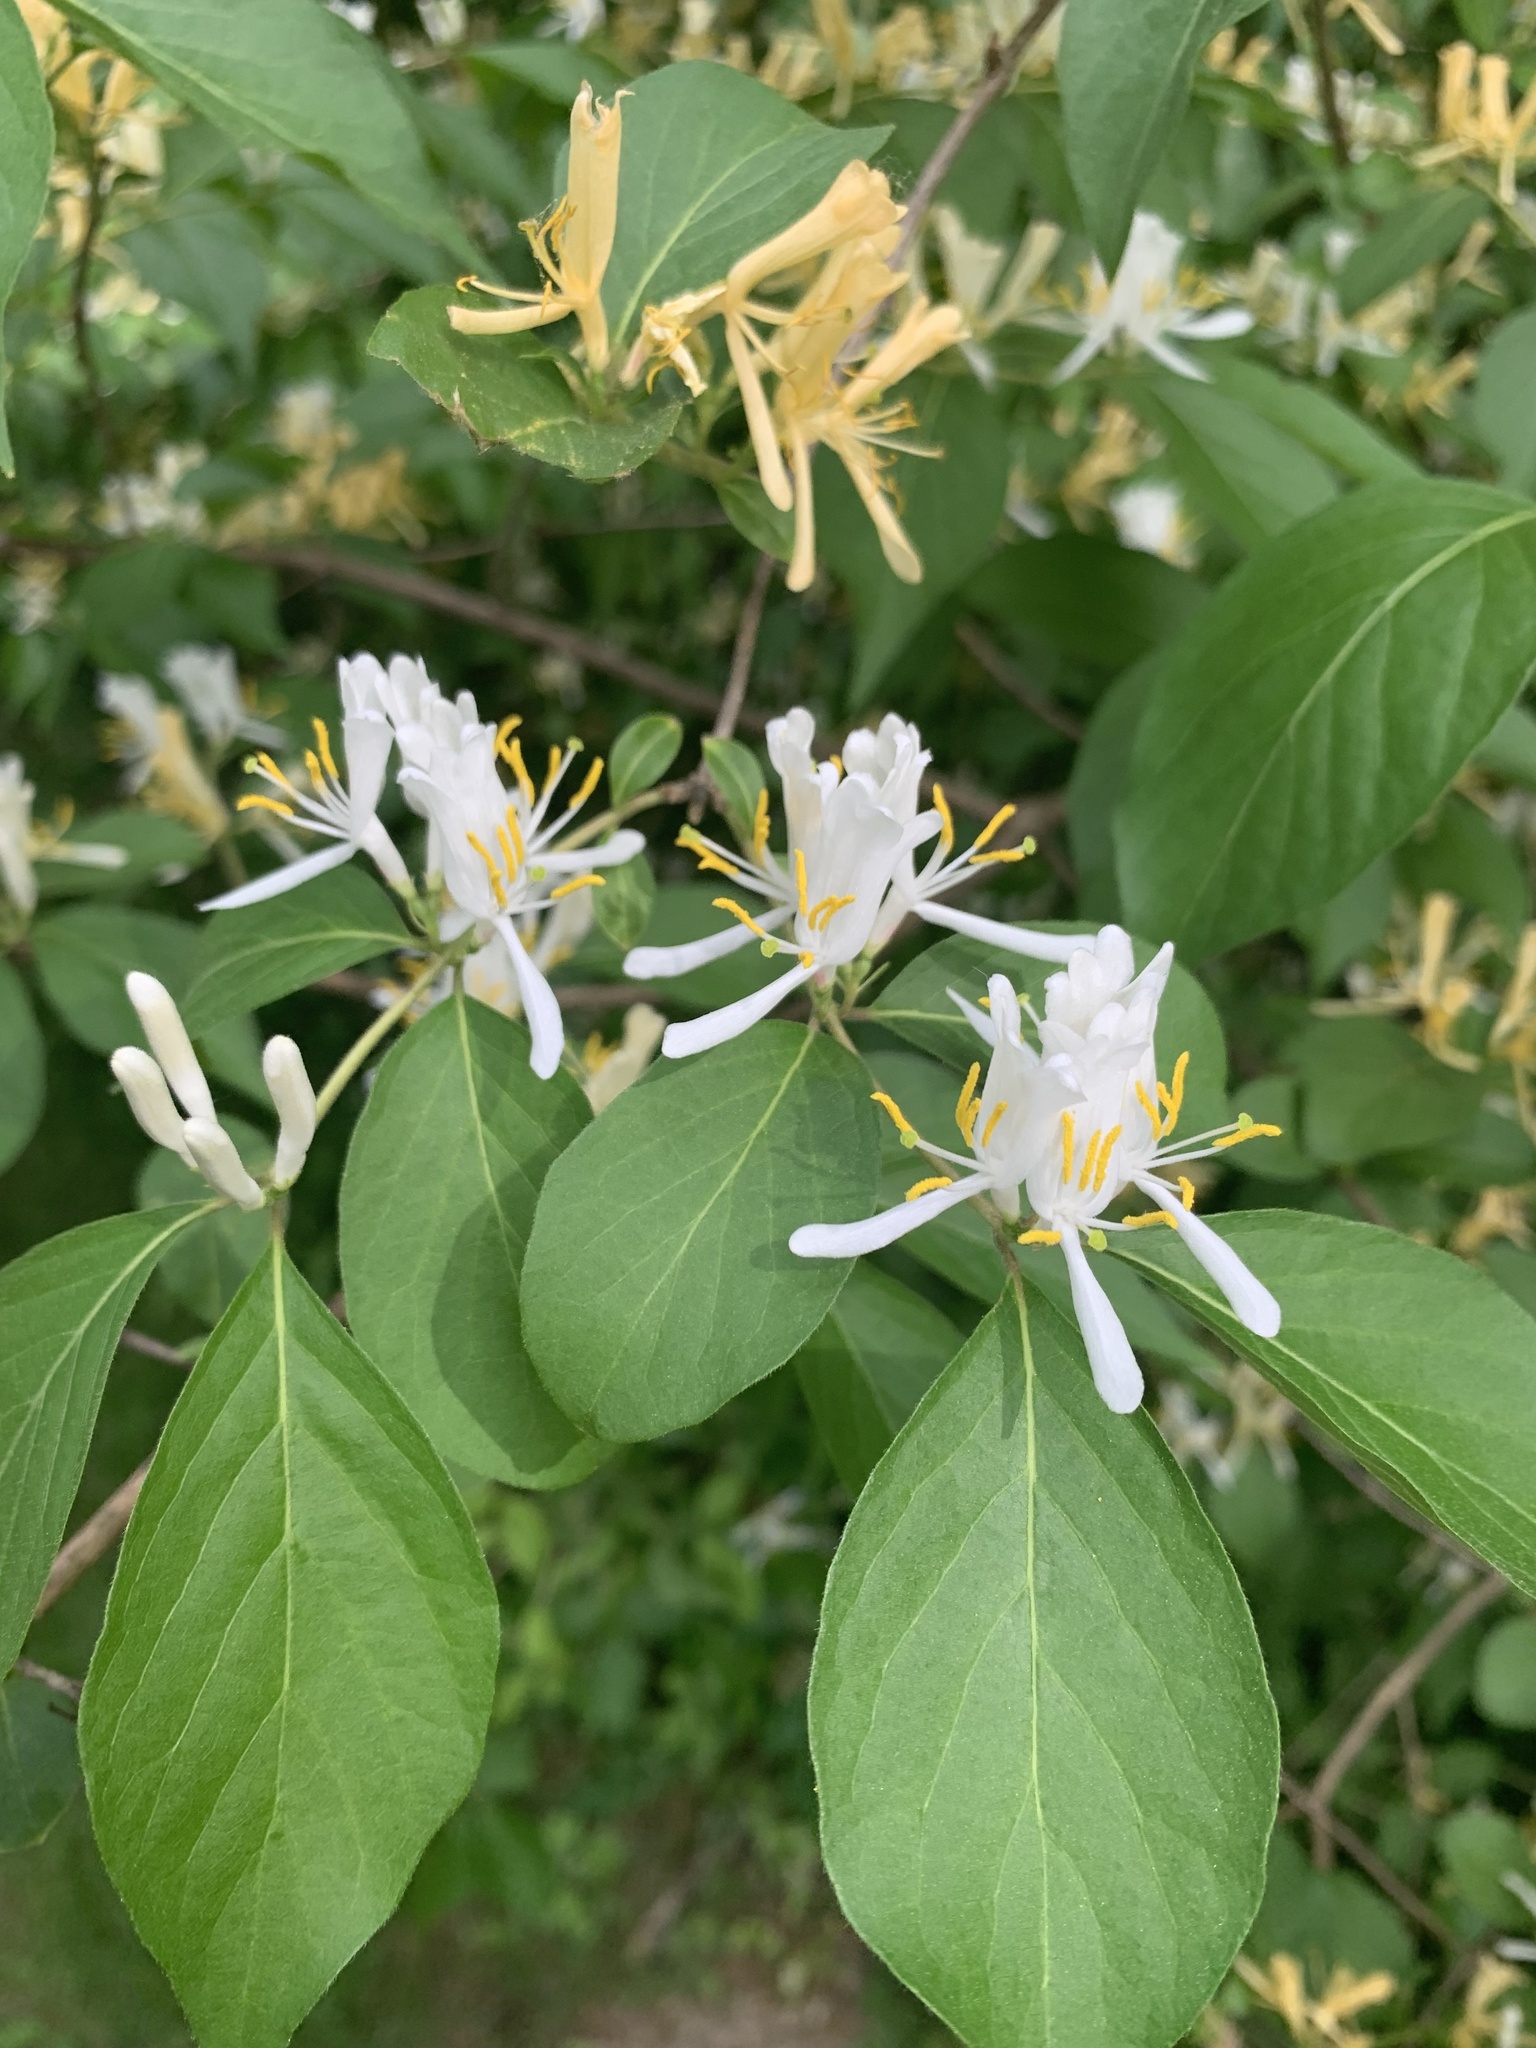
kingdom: Plantae
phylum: Tracheophyta
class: Magnoliopsida
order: Dipsacales
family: Caprifoliaceae
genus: Lonicera
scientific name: Lonicera maackii
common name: Amur honeysuckle
